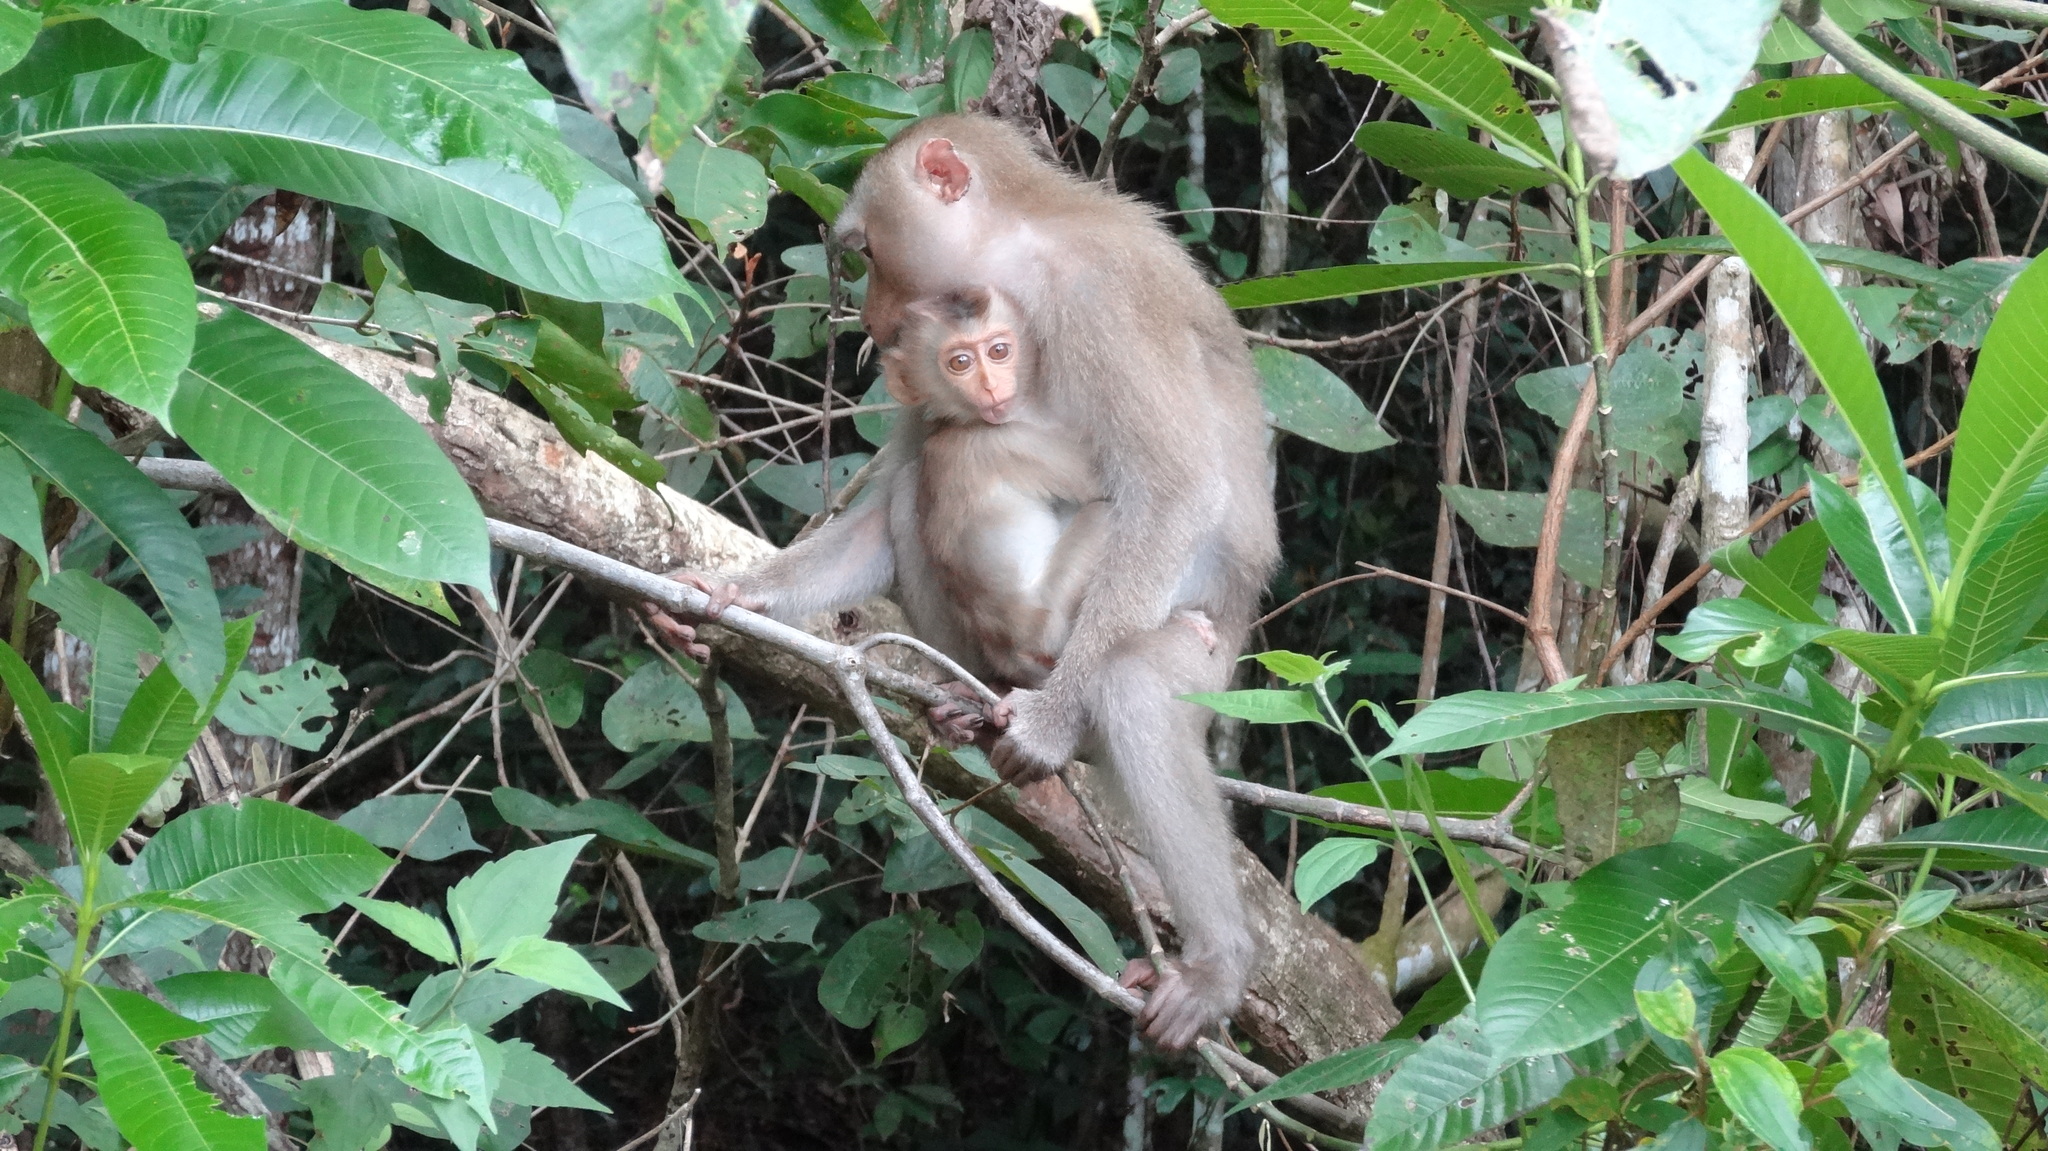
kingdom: Animalia
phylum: Chordata
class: Mammalia
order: Primates
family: Cercopithecidae
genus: Macaca
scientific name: Macaca leonina
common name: Northern pig-tailed macaque
